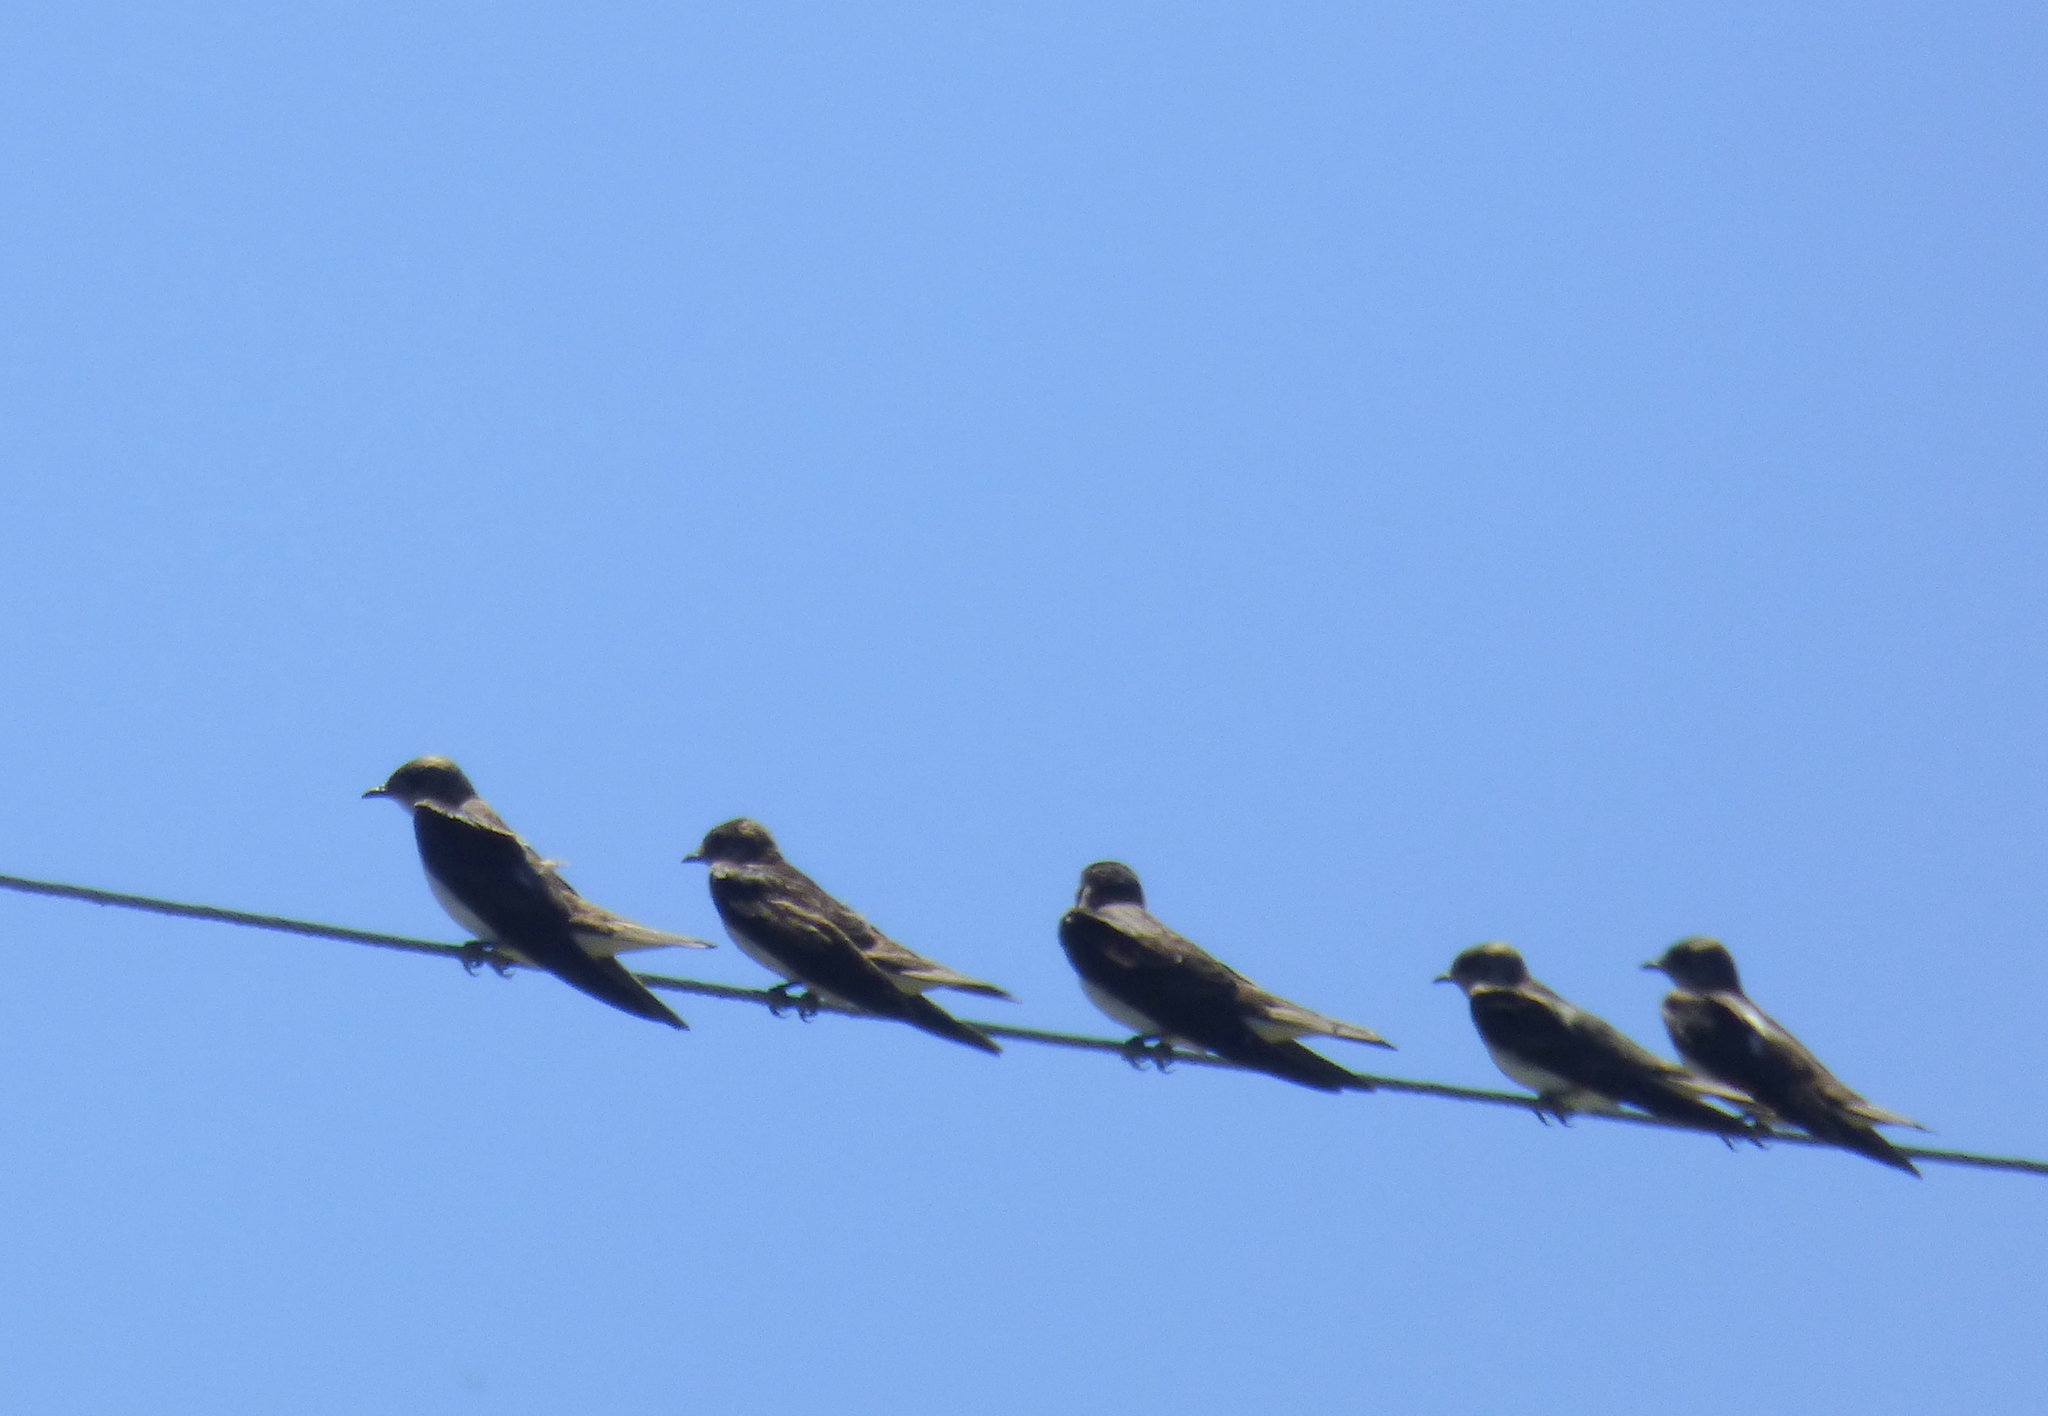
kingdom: Animalia
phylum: Chordata
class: Aves
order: Passeriformes
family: Hirundinidae
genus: Progne
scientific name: Progne tapera
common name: Brown-chested martin
